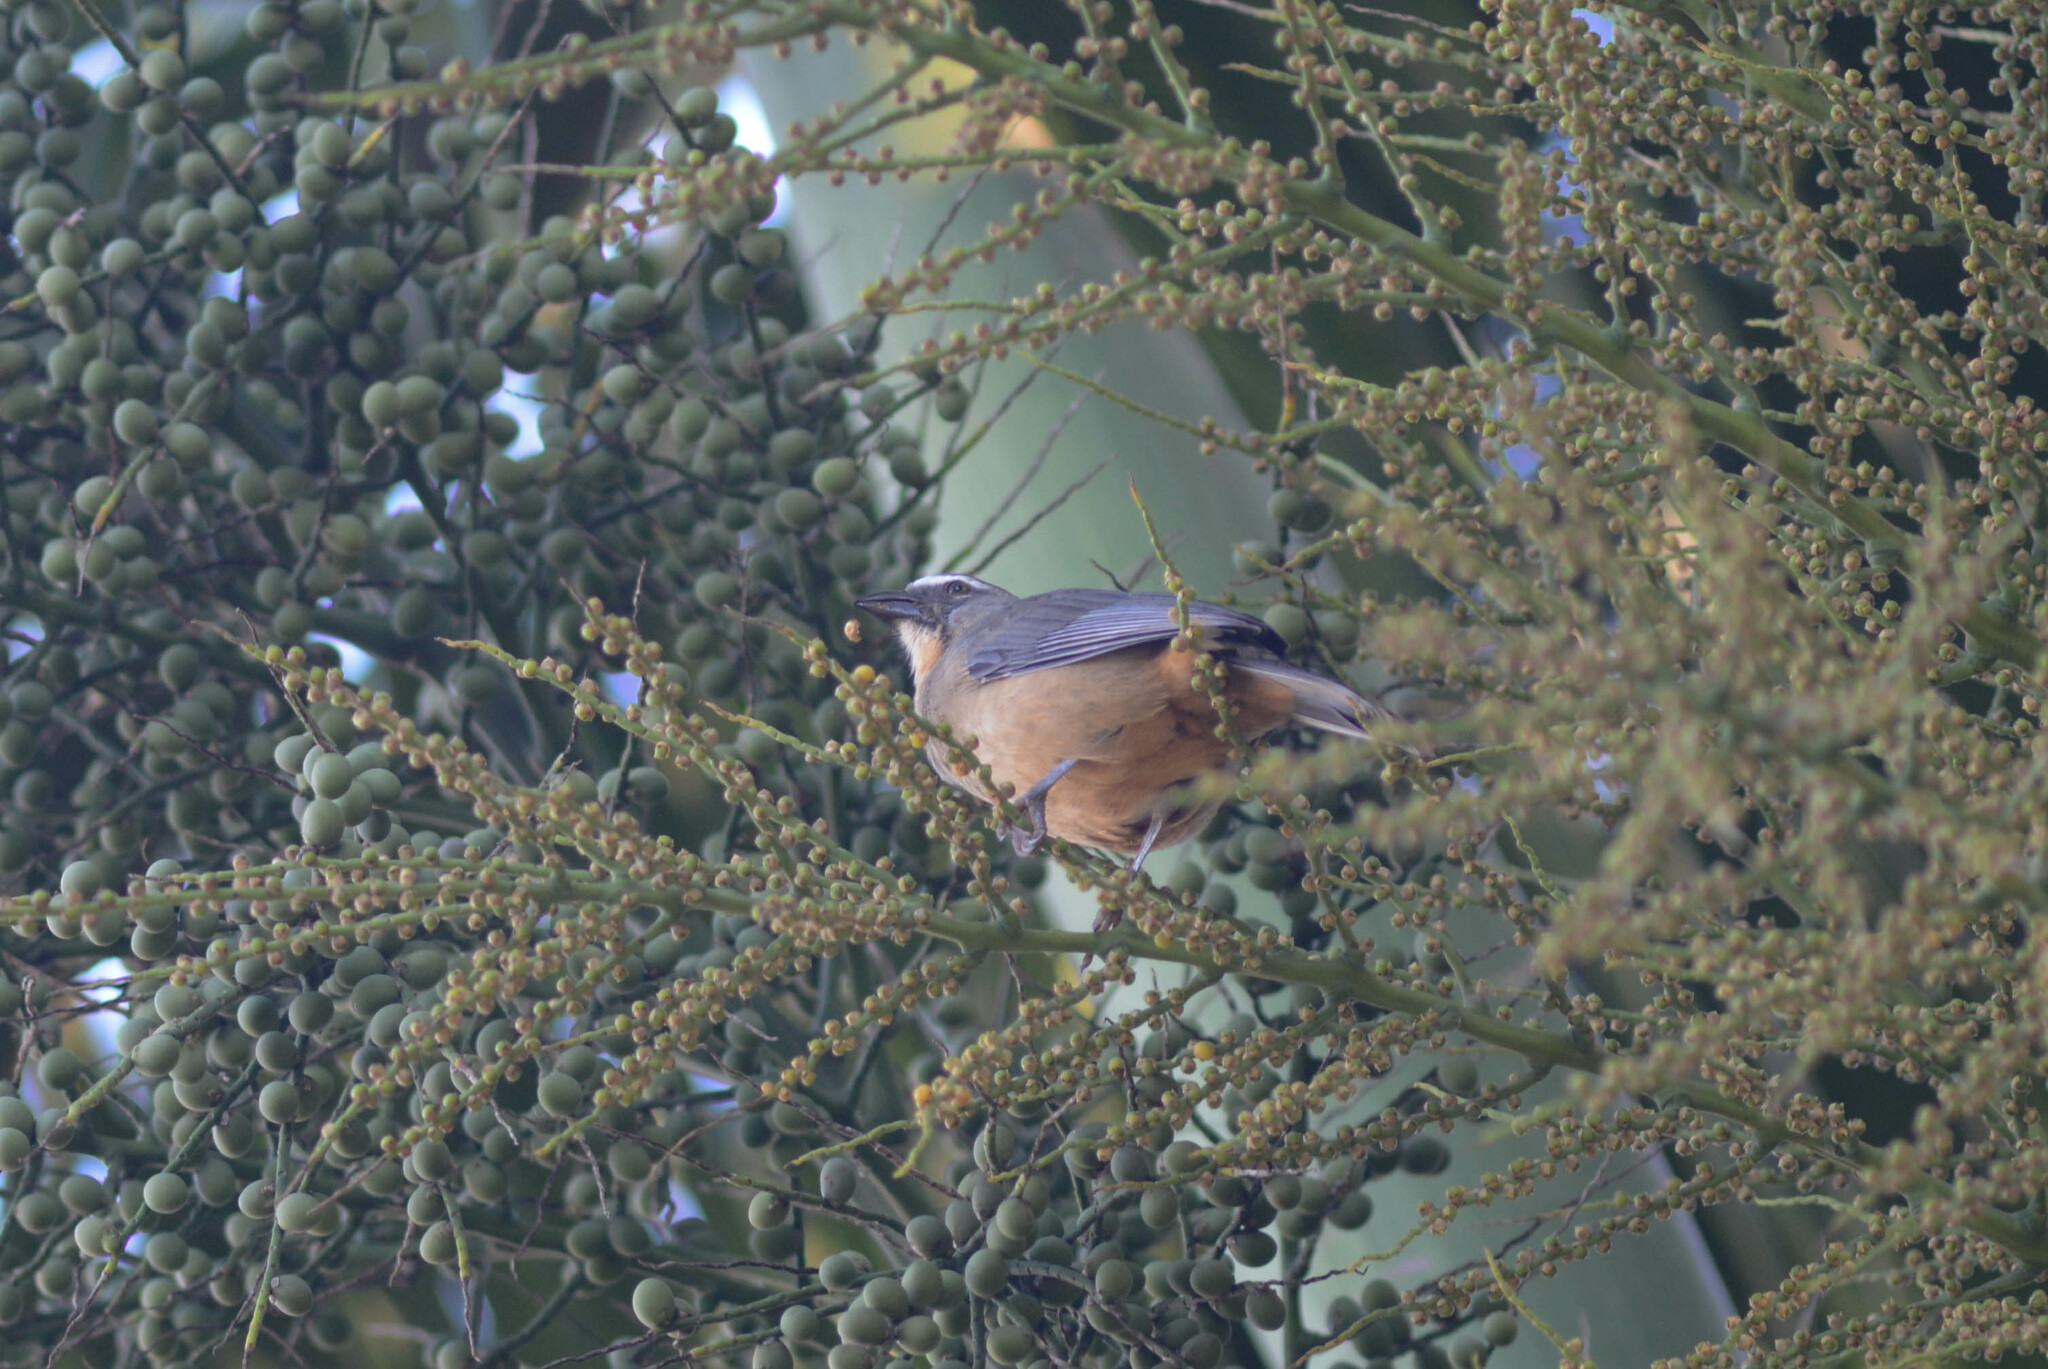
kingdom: Animalia
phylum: Chordata
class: Aves
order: Passeriformes
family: Thraupidae
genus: Saltator
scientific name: Saltator coerulescens
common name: Grayish saltator
